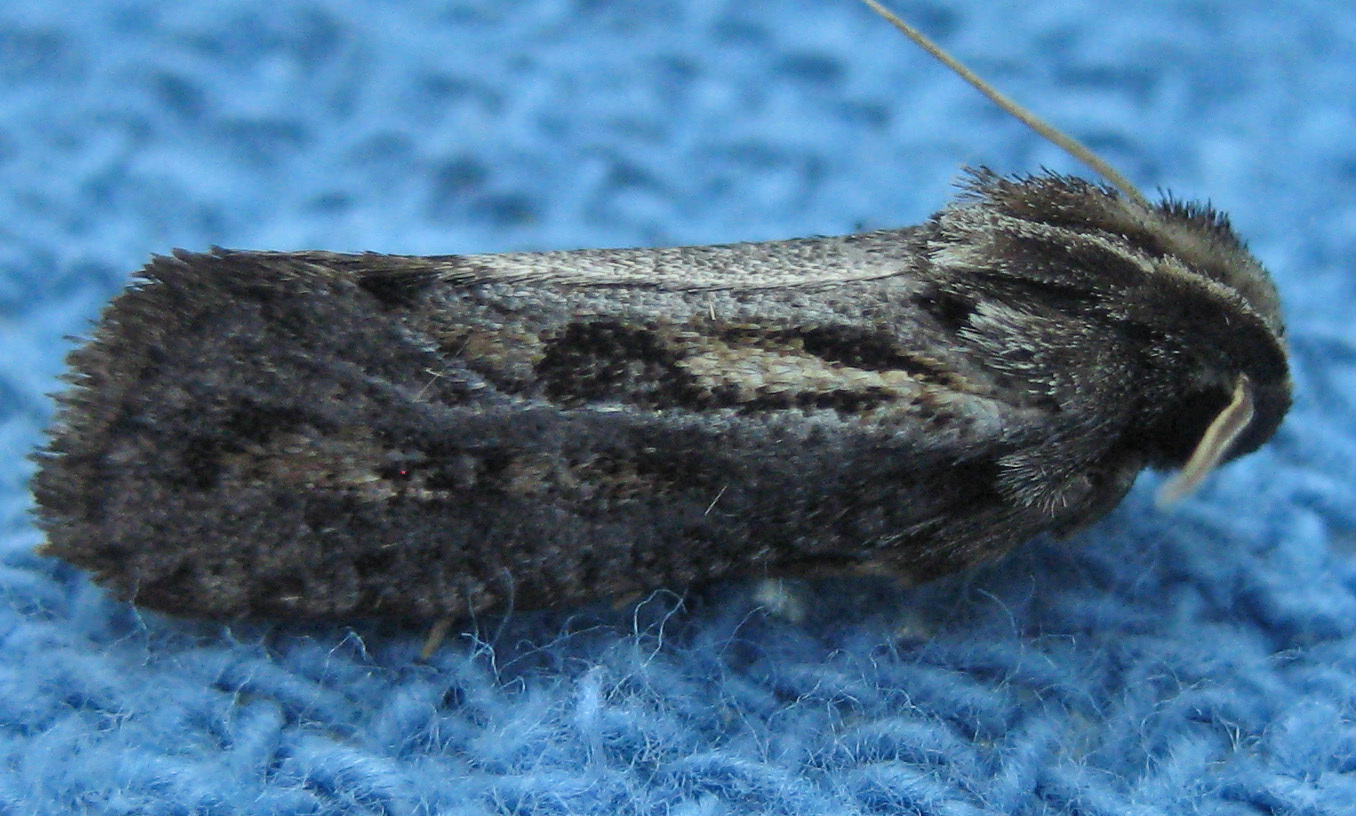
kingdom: Animalia
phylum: Arthropoda
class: Insecta
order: Lepidoptera
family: Tineidae
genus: Acrolophus
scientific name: Acrolophus popeanella
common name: Clemens' grass tubeworm moth
